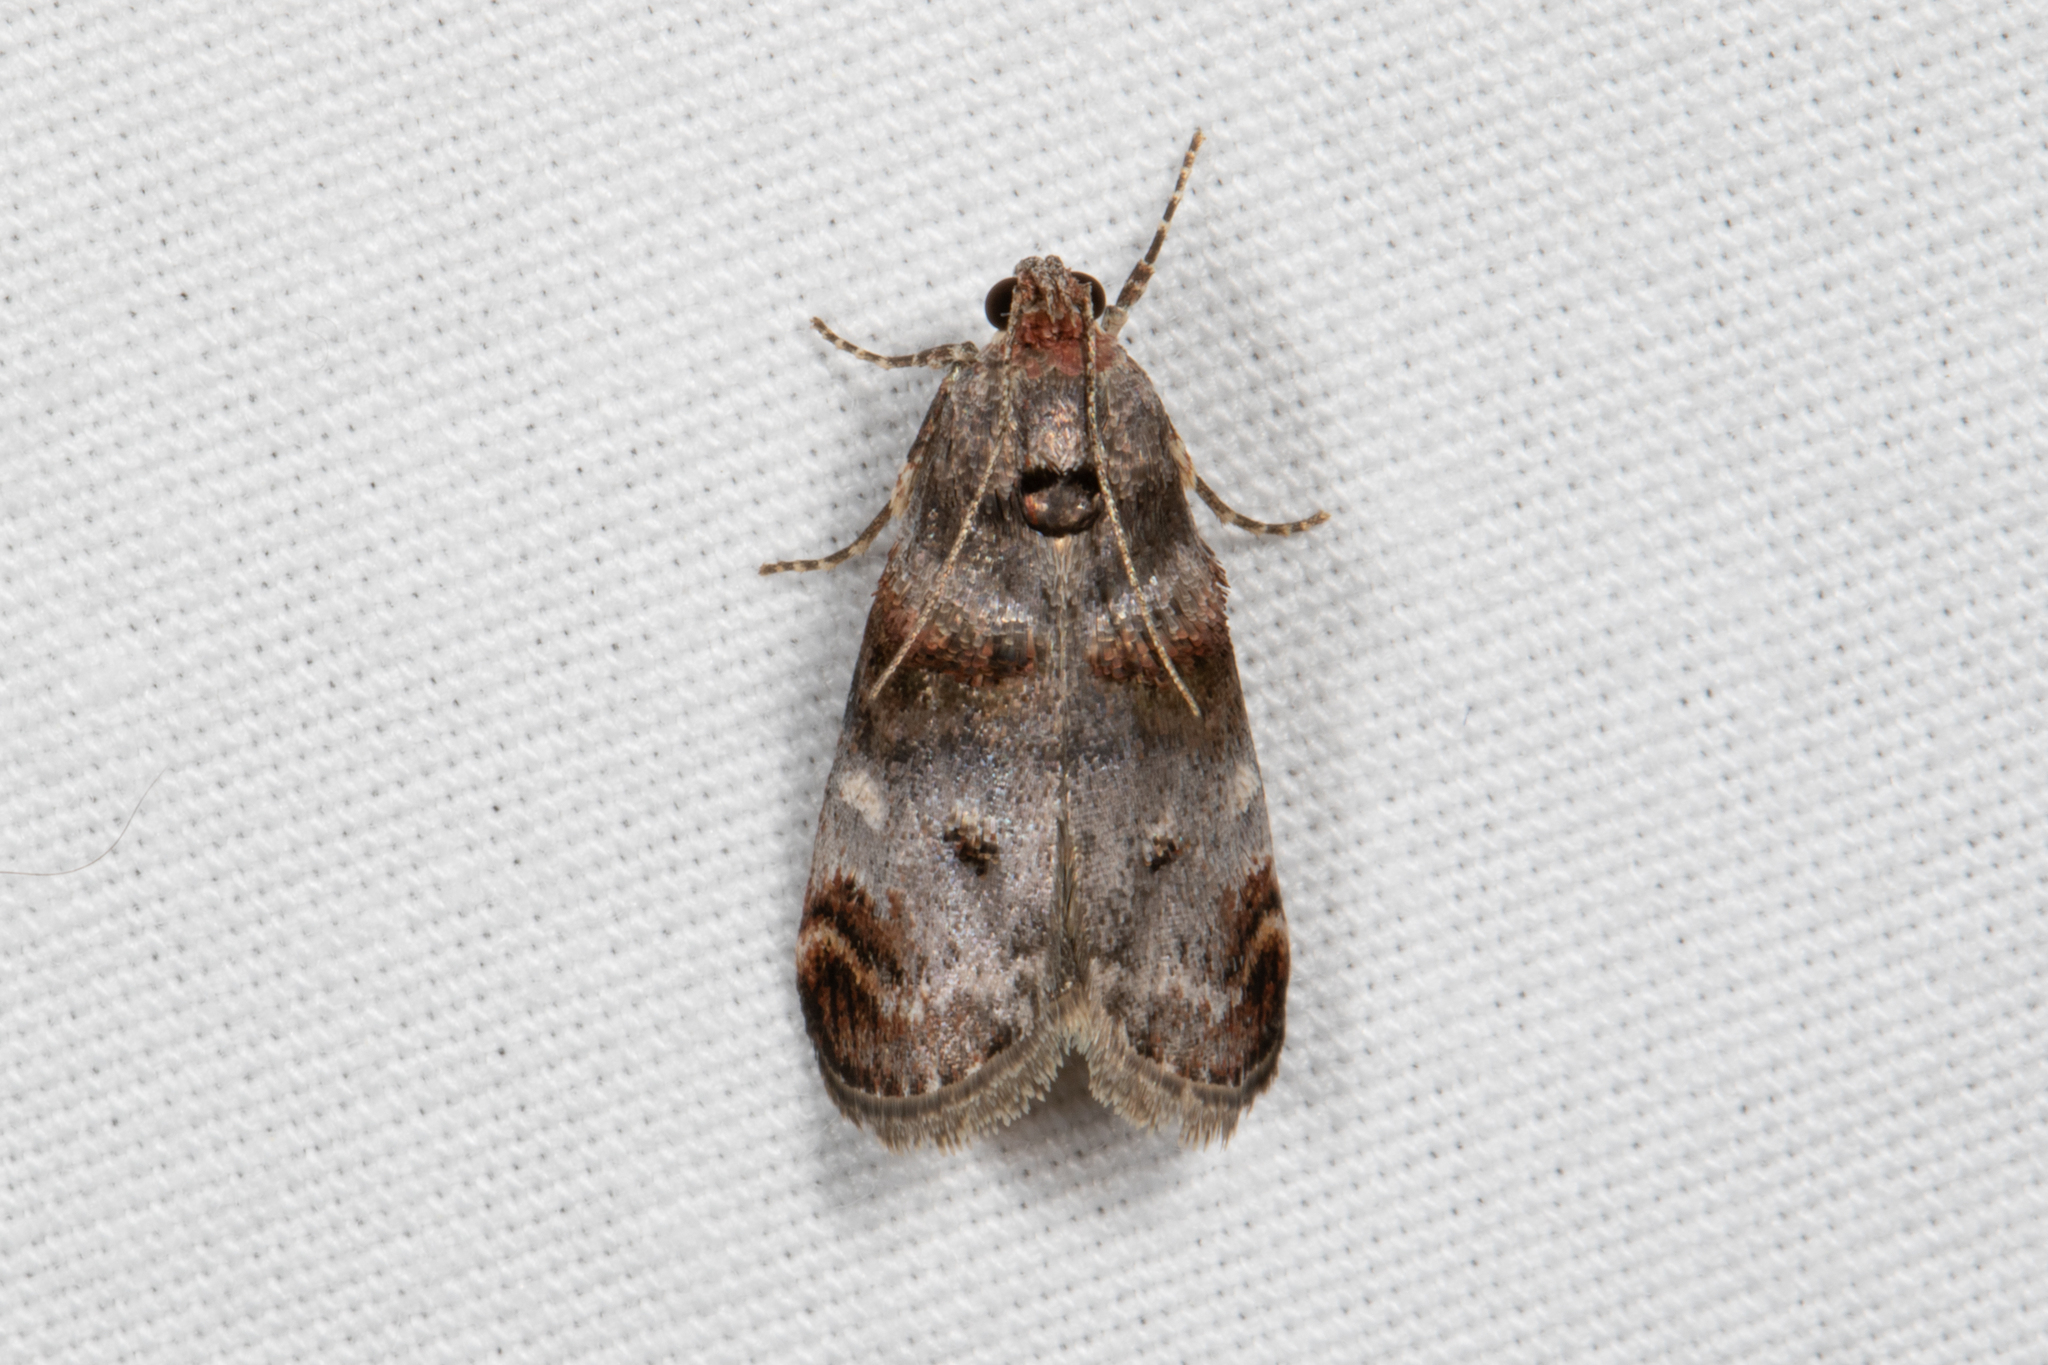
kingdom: Animalia
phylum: Arthropoda
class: Insecta
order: Lepidoptera
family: Pyralidae
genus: Oneida
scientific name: Oneida lunulalis
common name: Orange-tufted oneida moth
